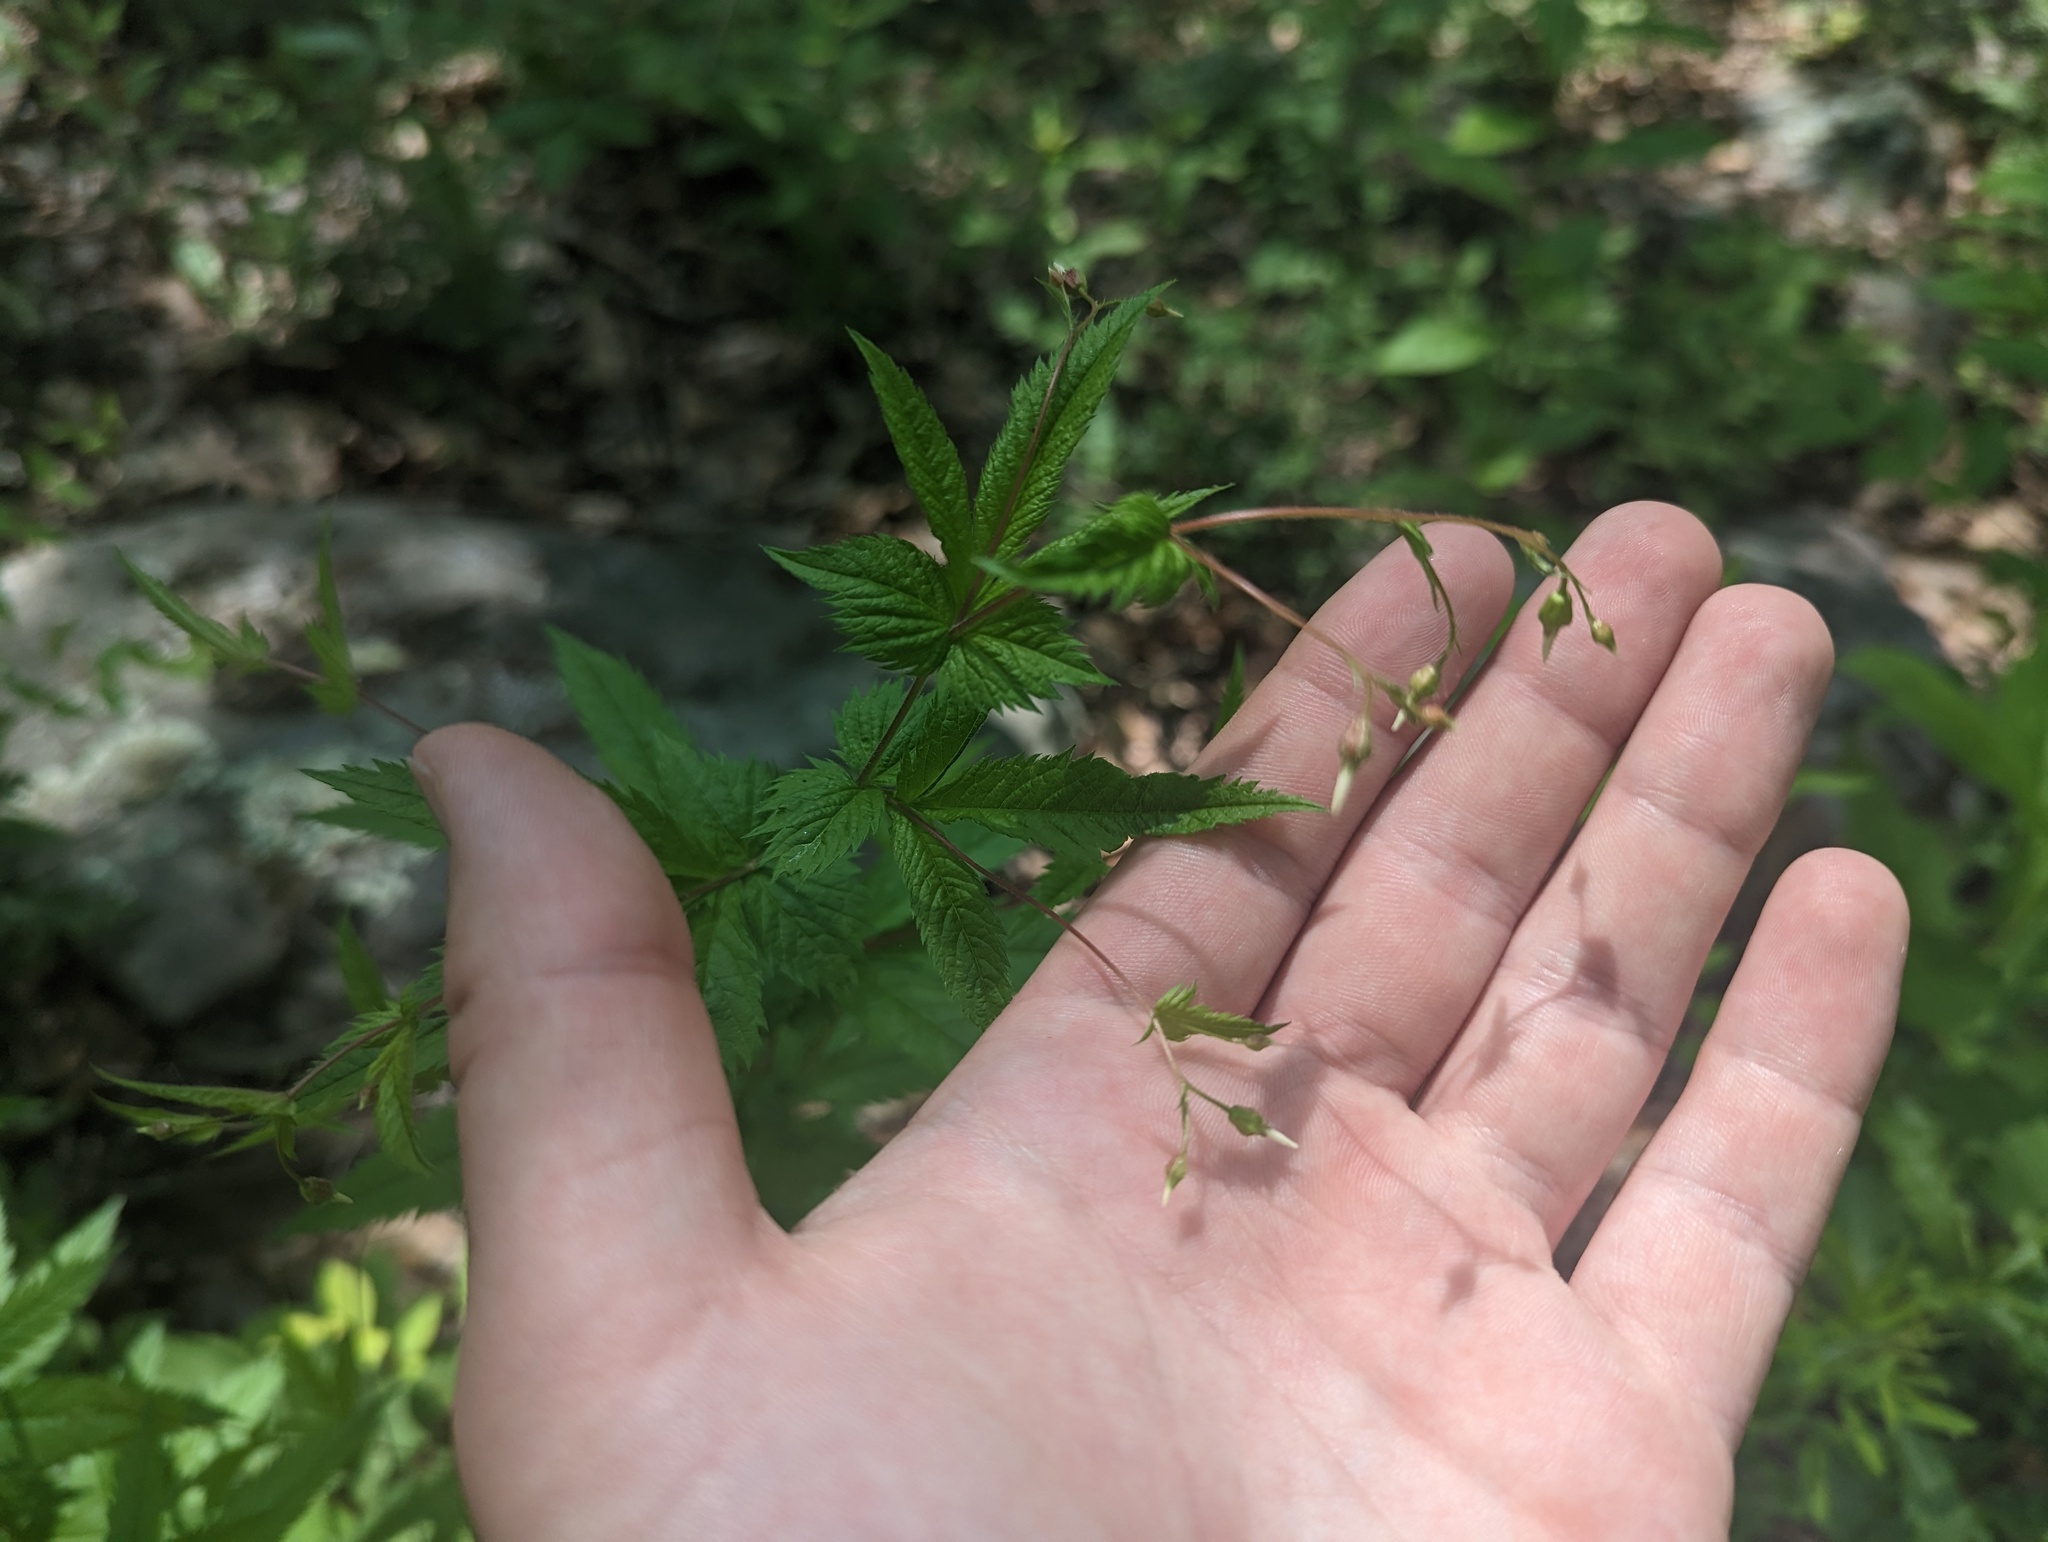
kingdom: Plantae
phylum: Tracheophyta
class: Magnoliopsida
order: Rosales
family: Rosaceae
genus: Gillenia
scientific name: Gillenia stipulata
